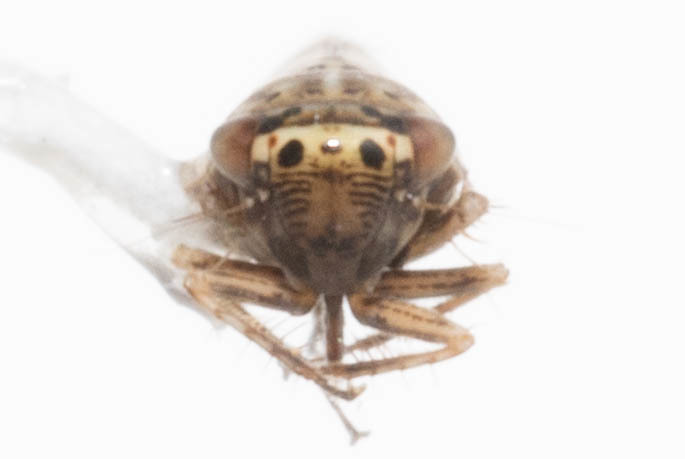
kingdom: Animalia
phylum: Arthropoda
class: Insecta
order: Hemiptera
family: Cicadellidae
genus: Exitianus
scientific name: Exitianus exitiosus
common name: Gray lawn leafhopper
